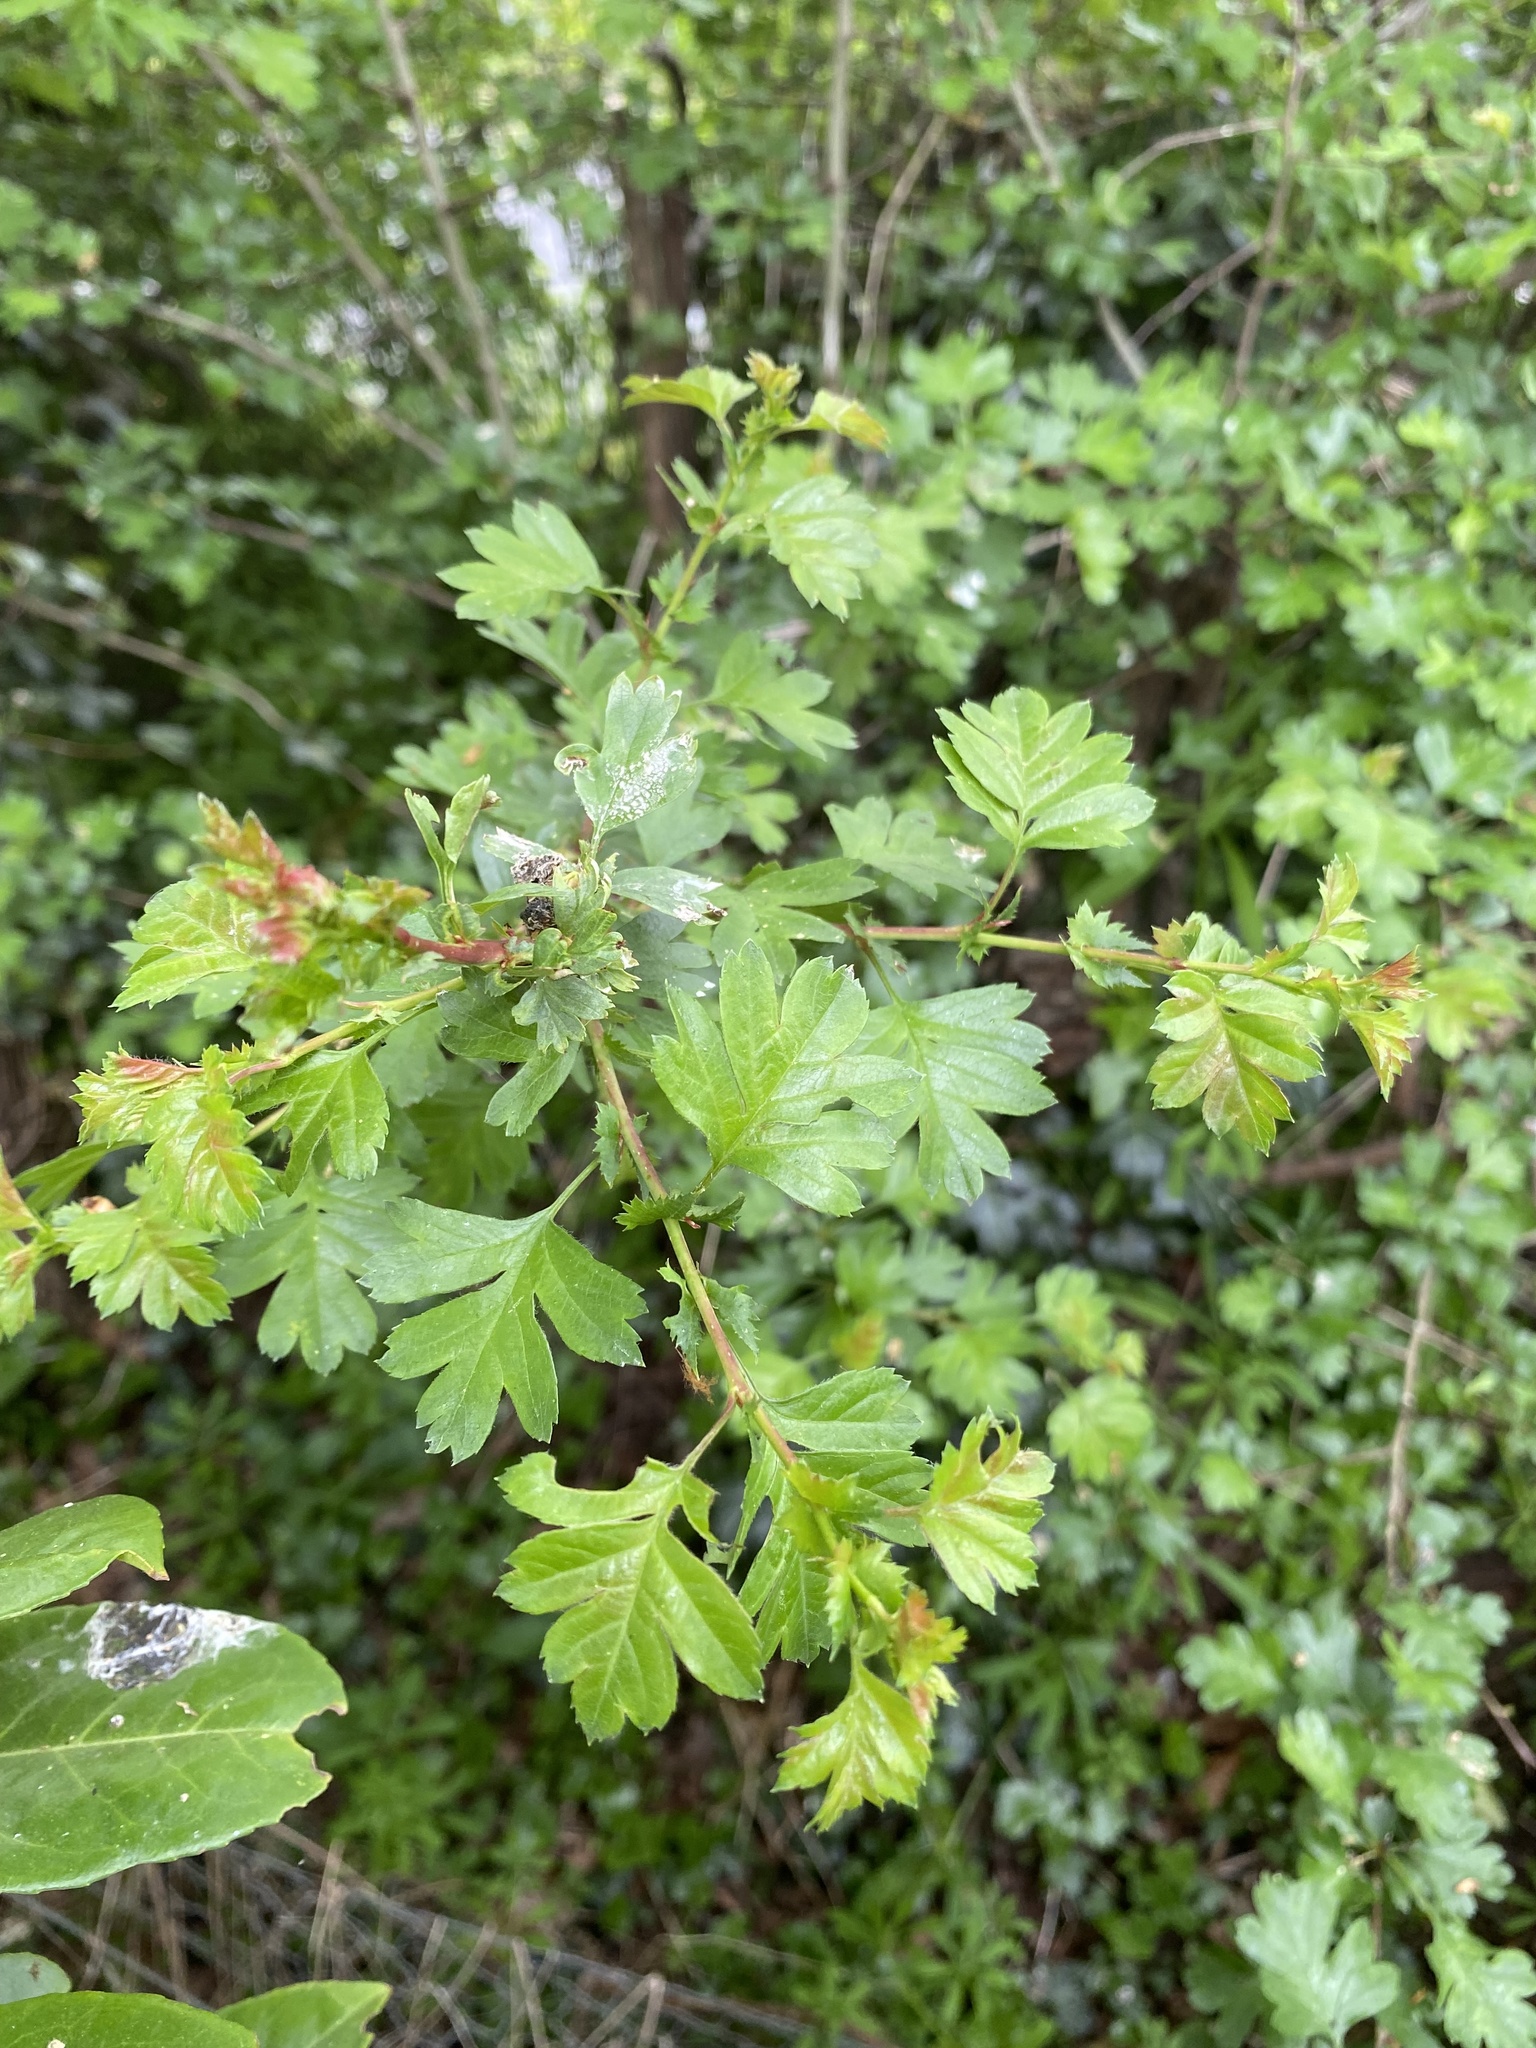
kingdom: Plantae
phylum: Tracheophyta
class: Magnoliopsida
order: Rosales
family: Rosaceae
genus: Crataegus
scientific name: Crataegus monogyna
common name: Hawthorn
